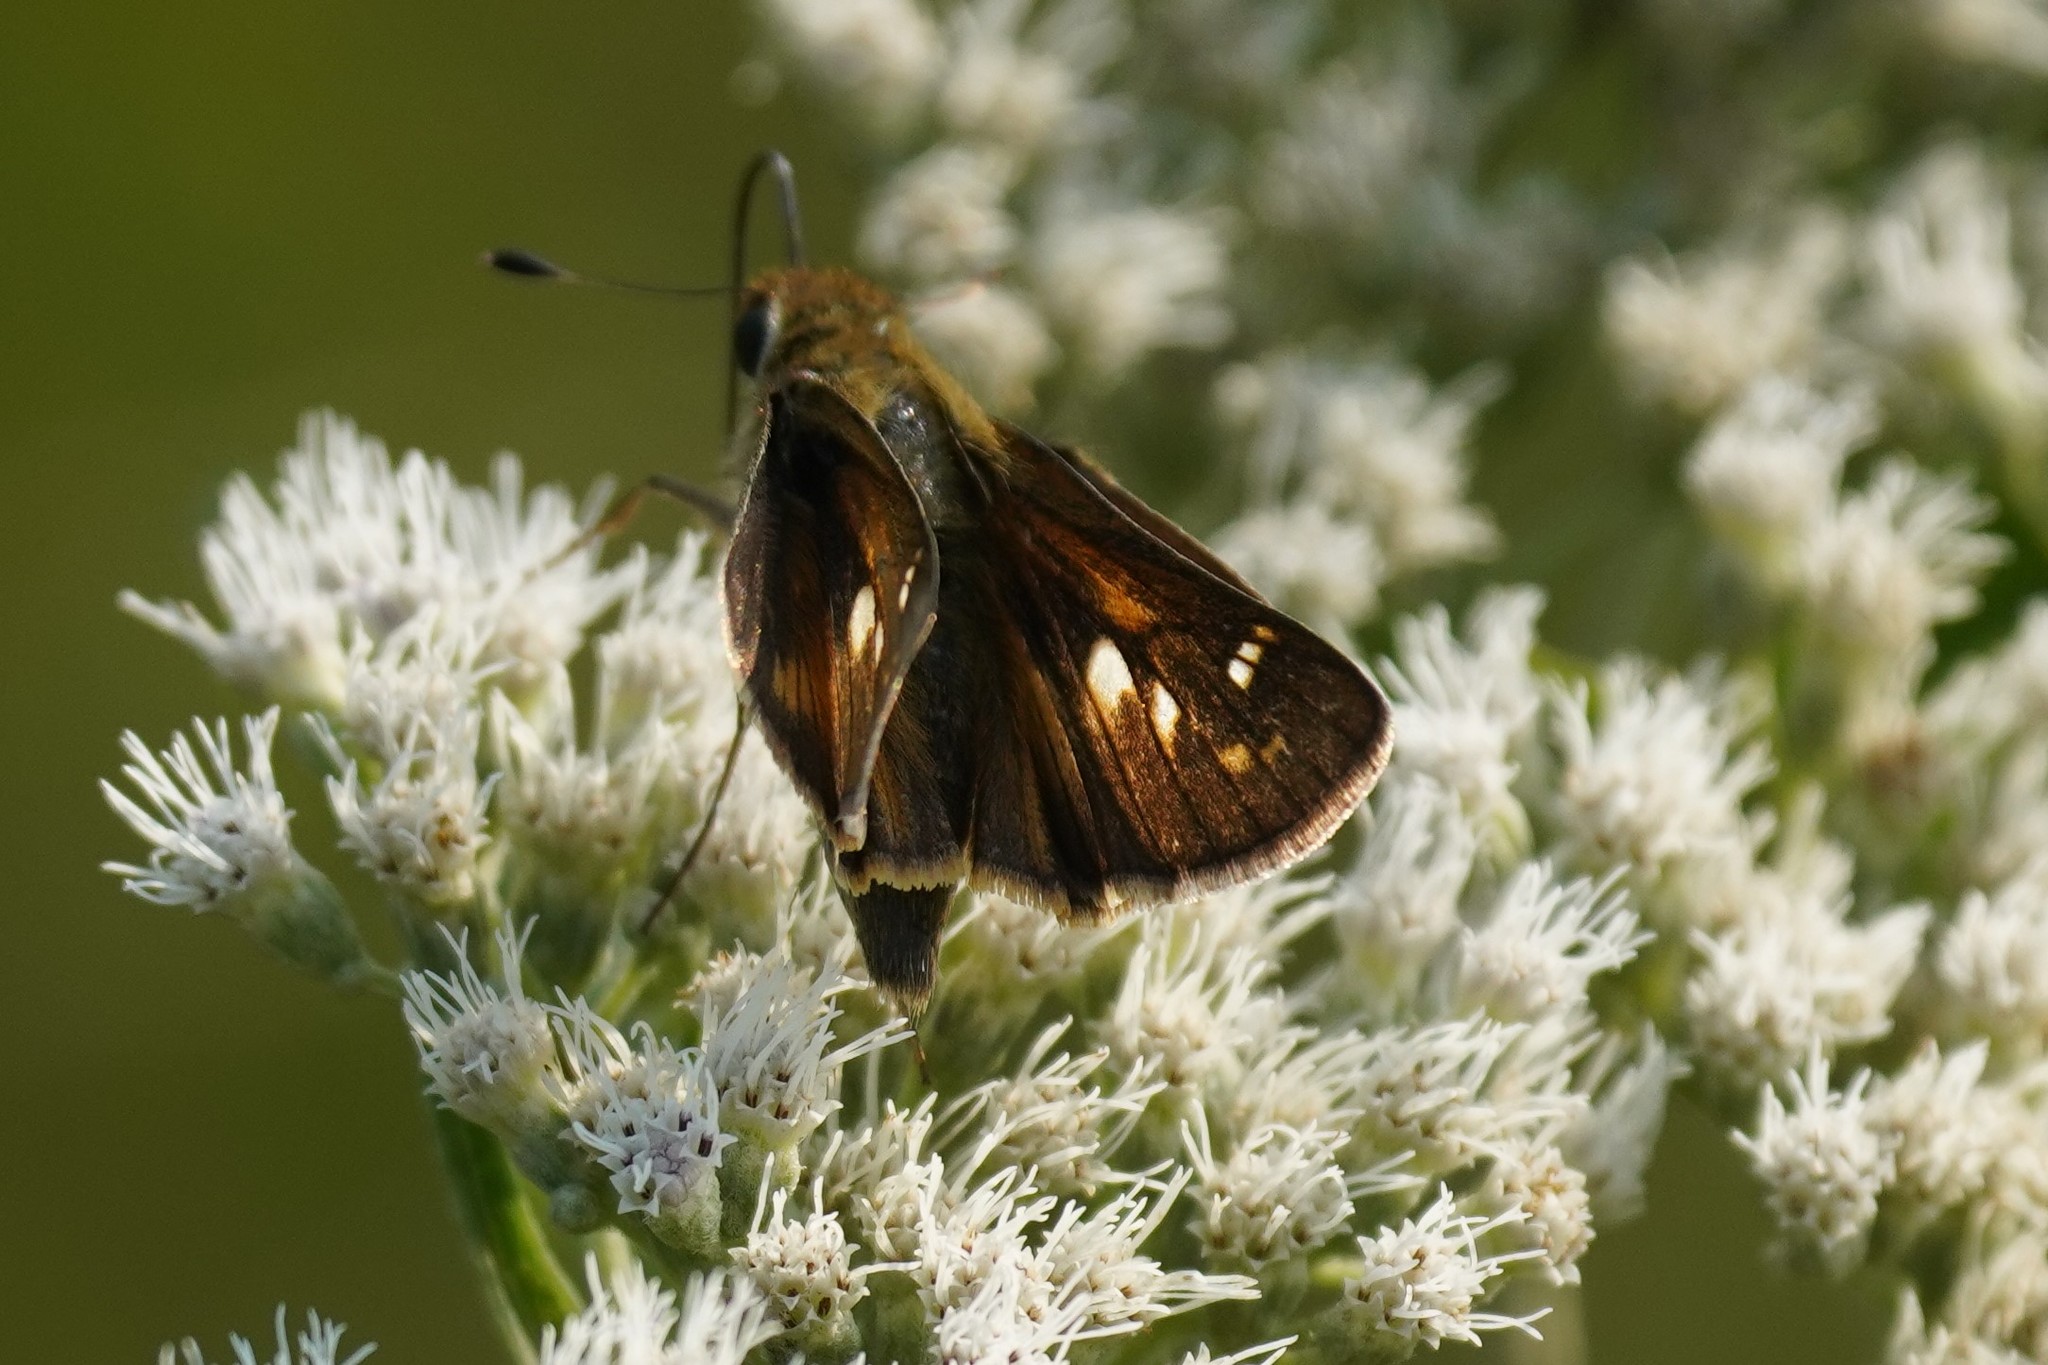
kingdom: Animalia
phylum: Arthropoda
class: Insecta
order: Lepidoptera
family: Hesperiidae
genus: Atalopedes
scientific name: Atalopedes
